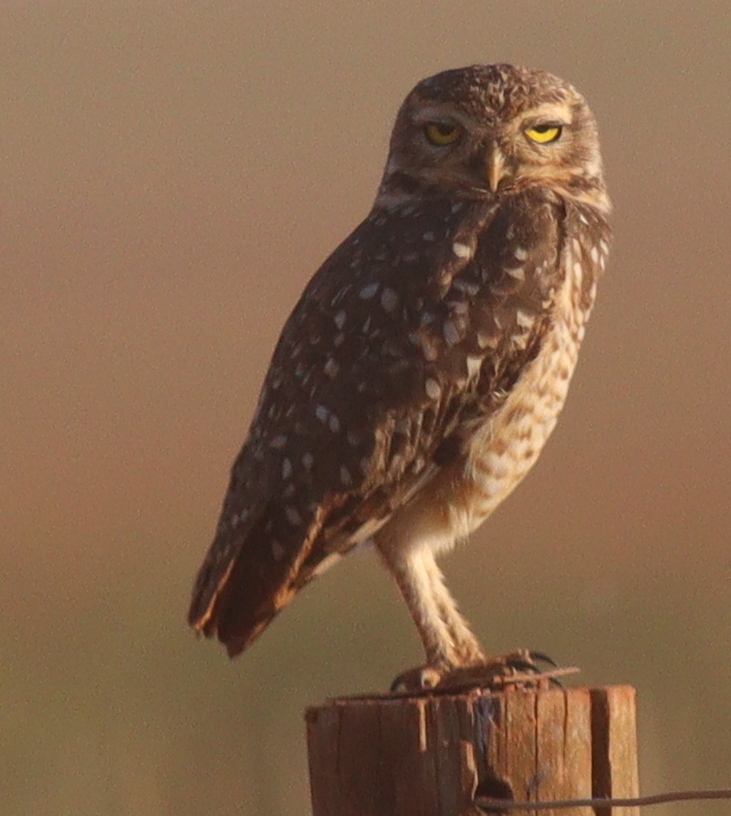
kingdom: Animalia
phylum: Chordata
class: Aves
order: Strigiformes
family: Strigidae
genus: Athene
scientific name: Athene cunicularia
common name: Burrowing owl
